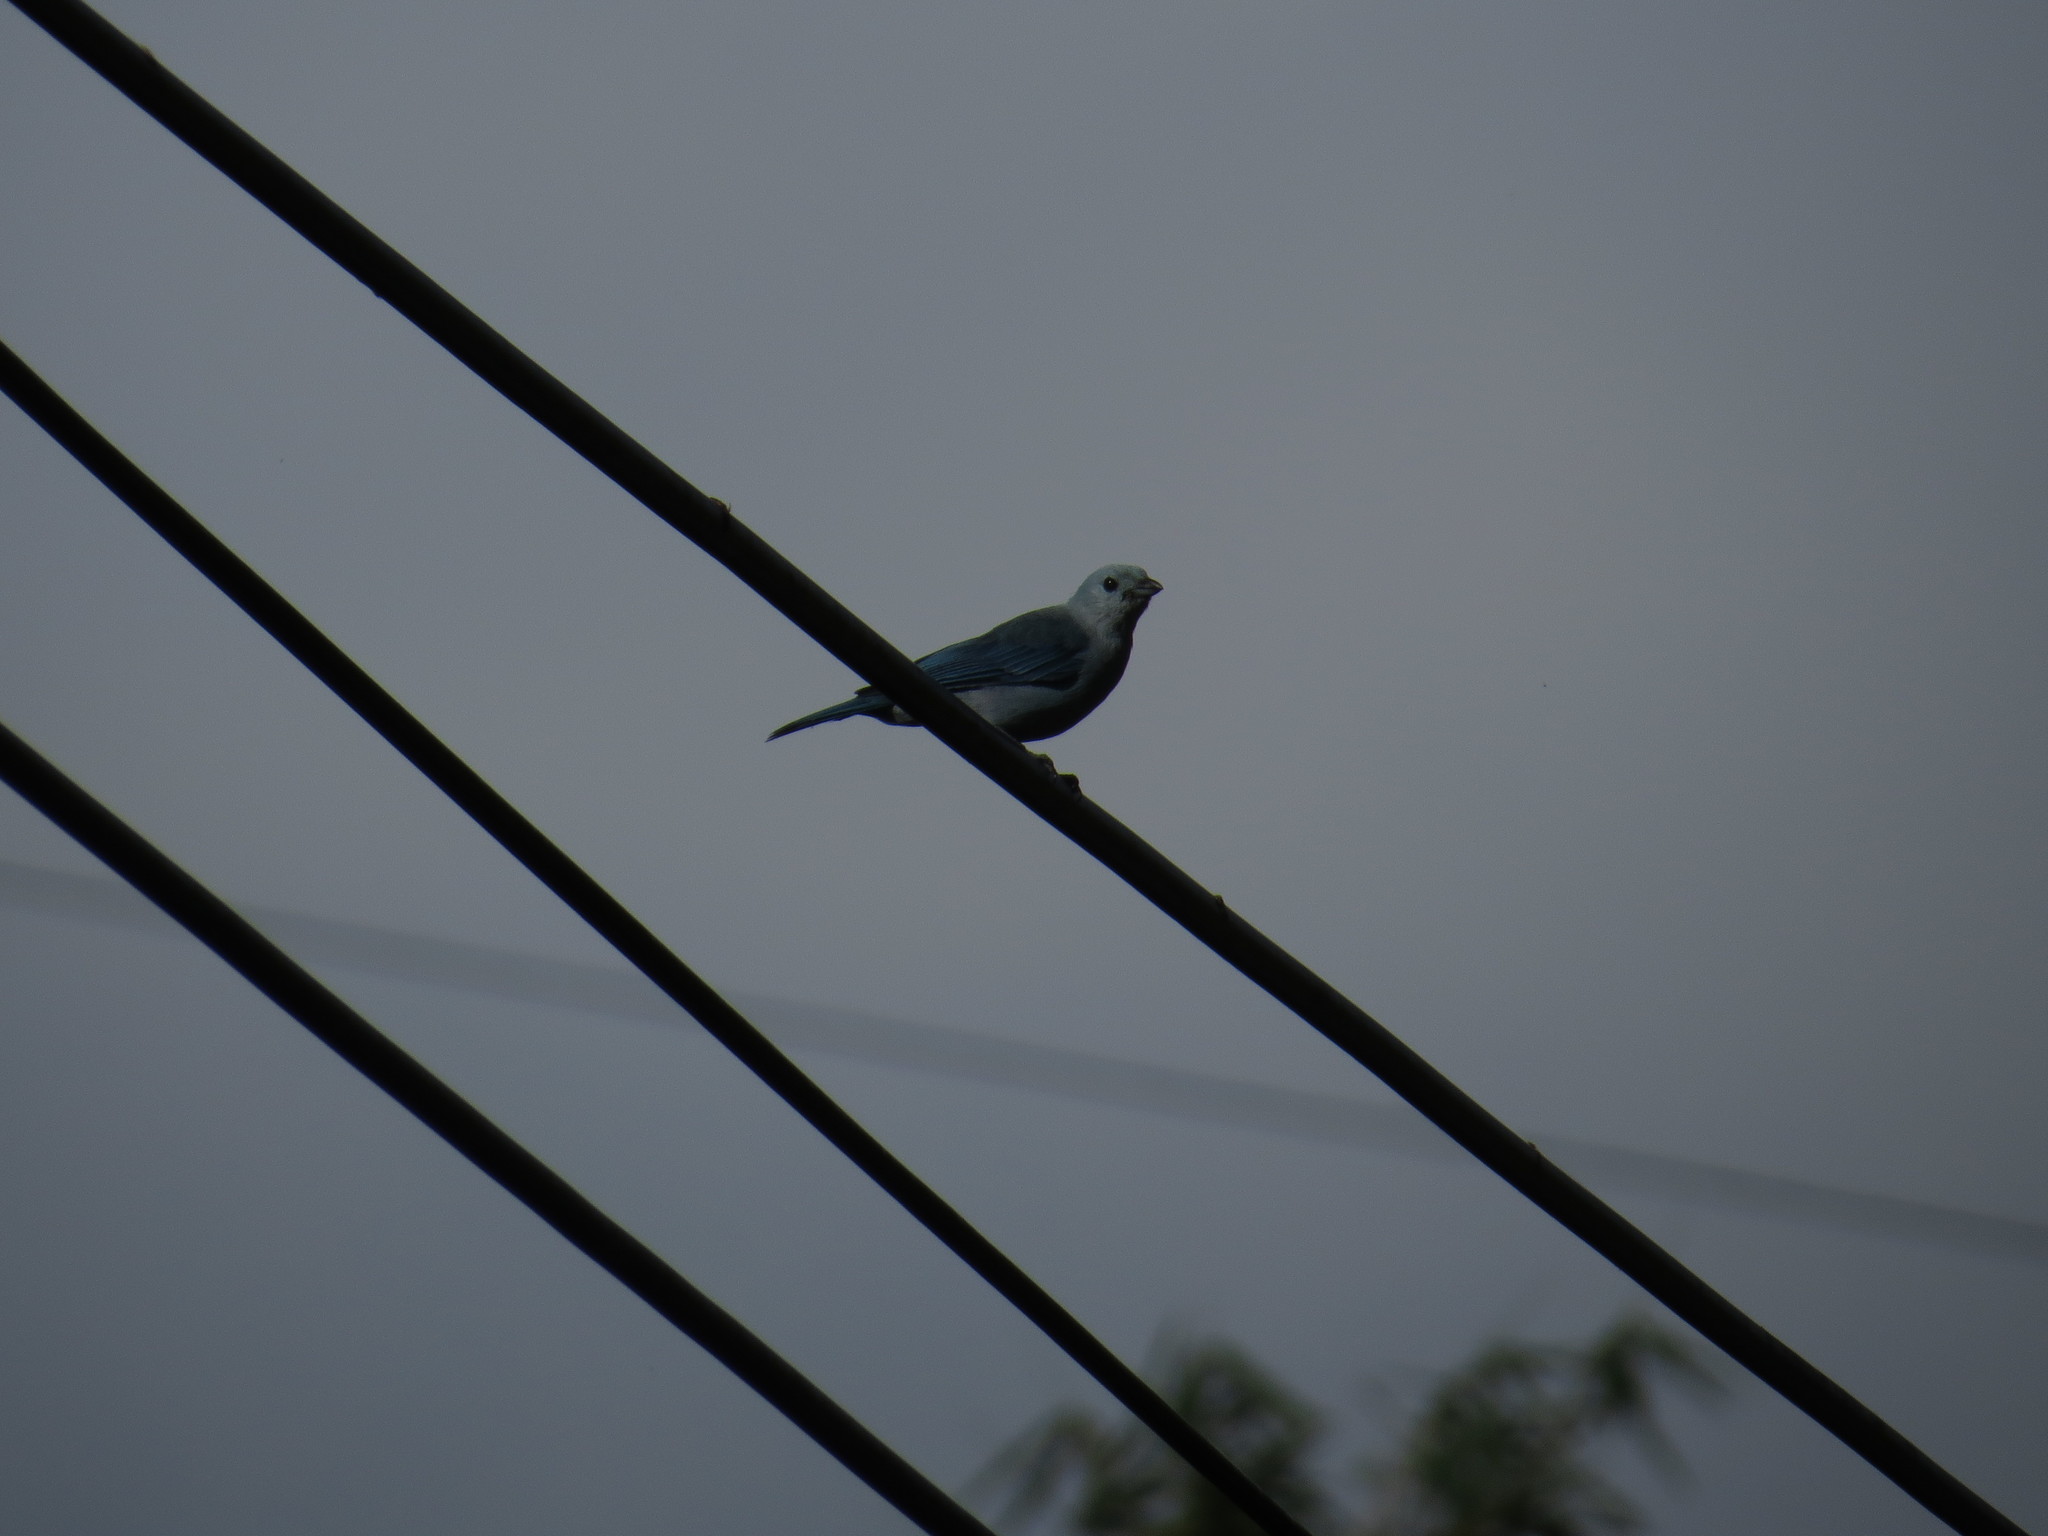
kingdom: Animalia
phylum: Chordata
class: Aves
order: Passeriformes
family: Thraupidae
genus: Thraupis
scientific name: Thraupis episcopus
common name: Blue-grey tanager
